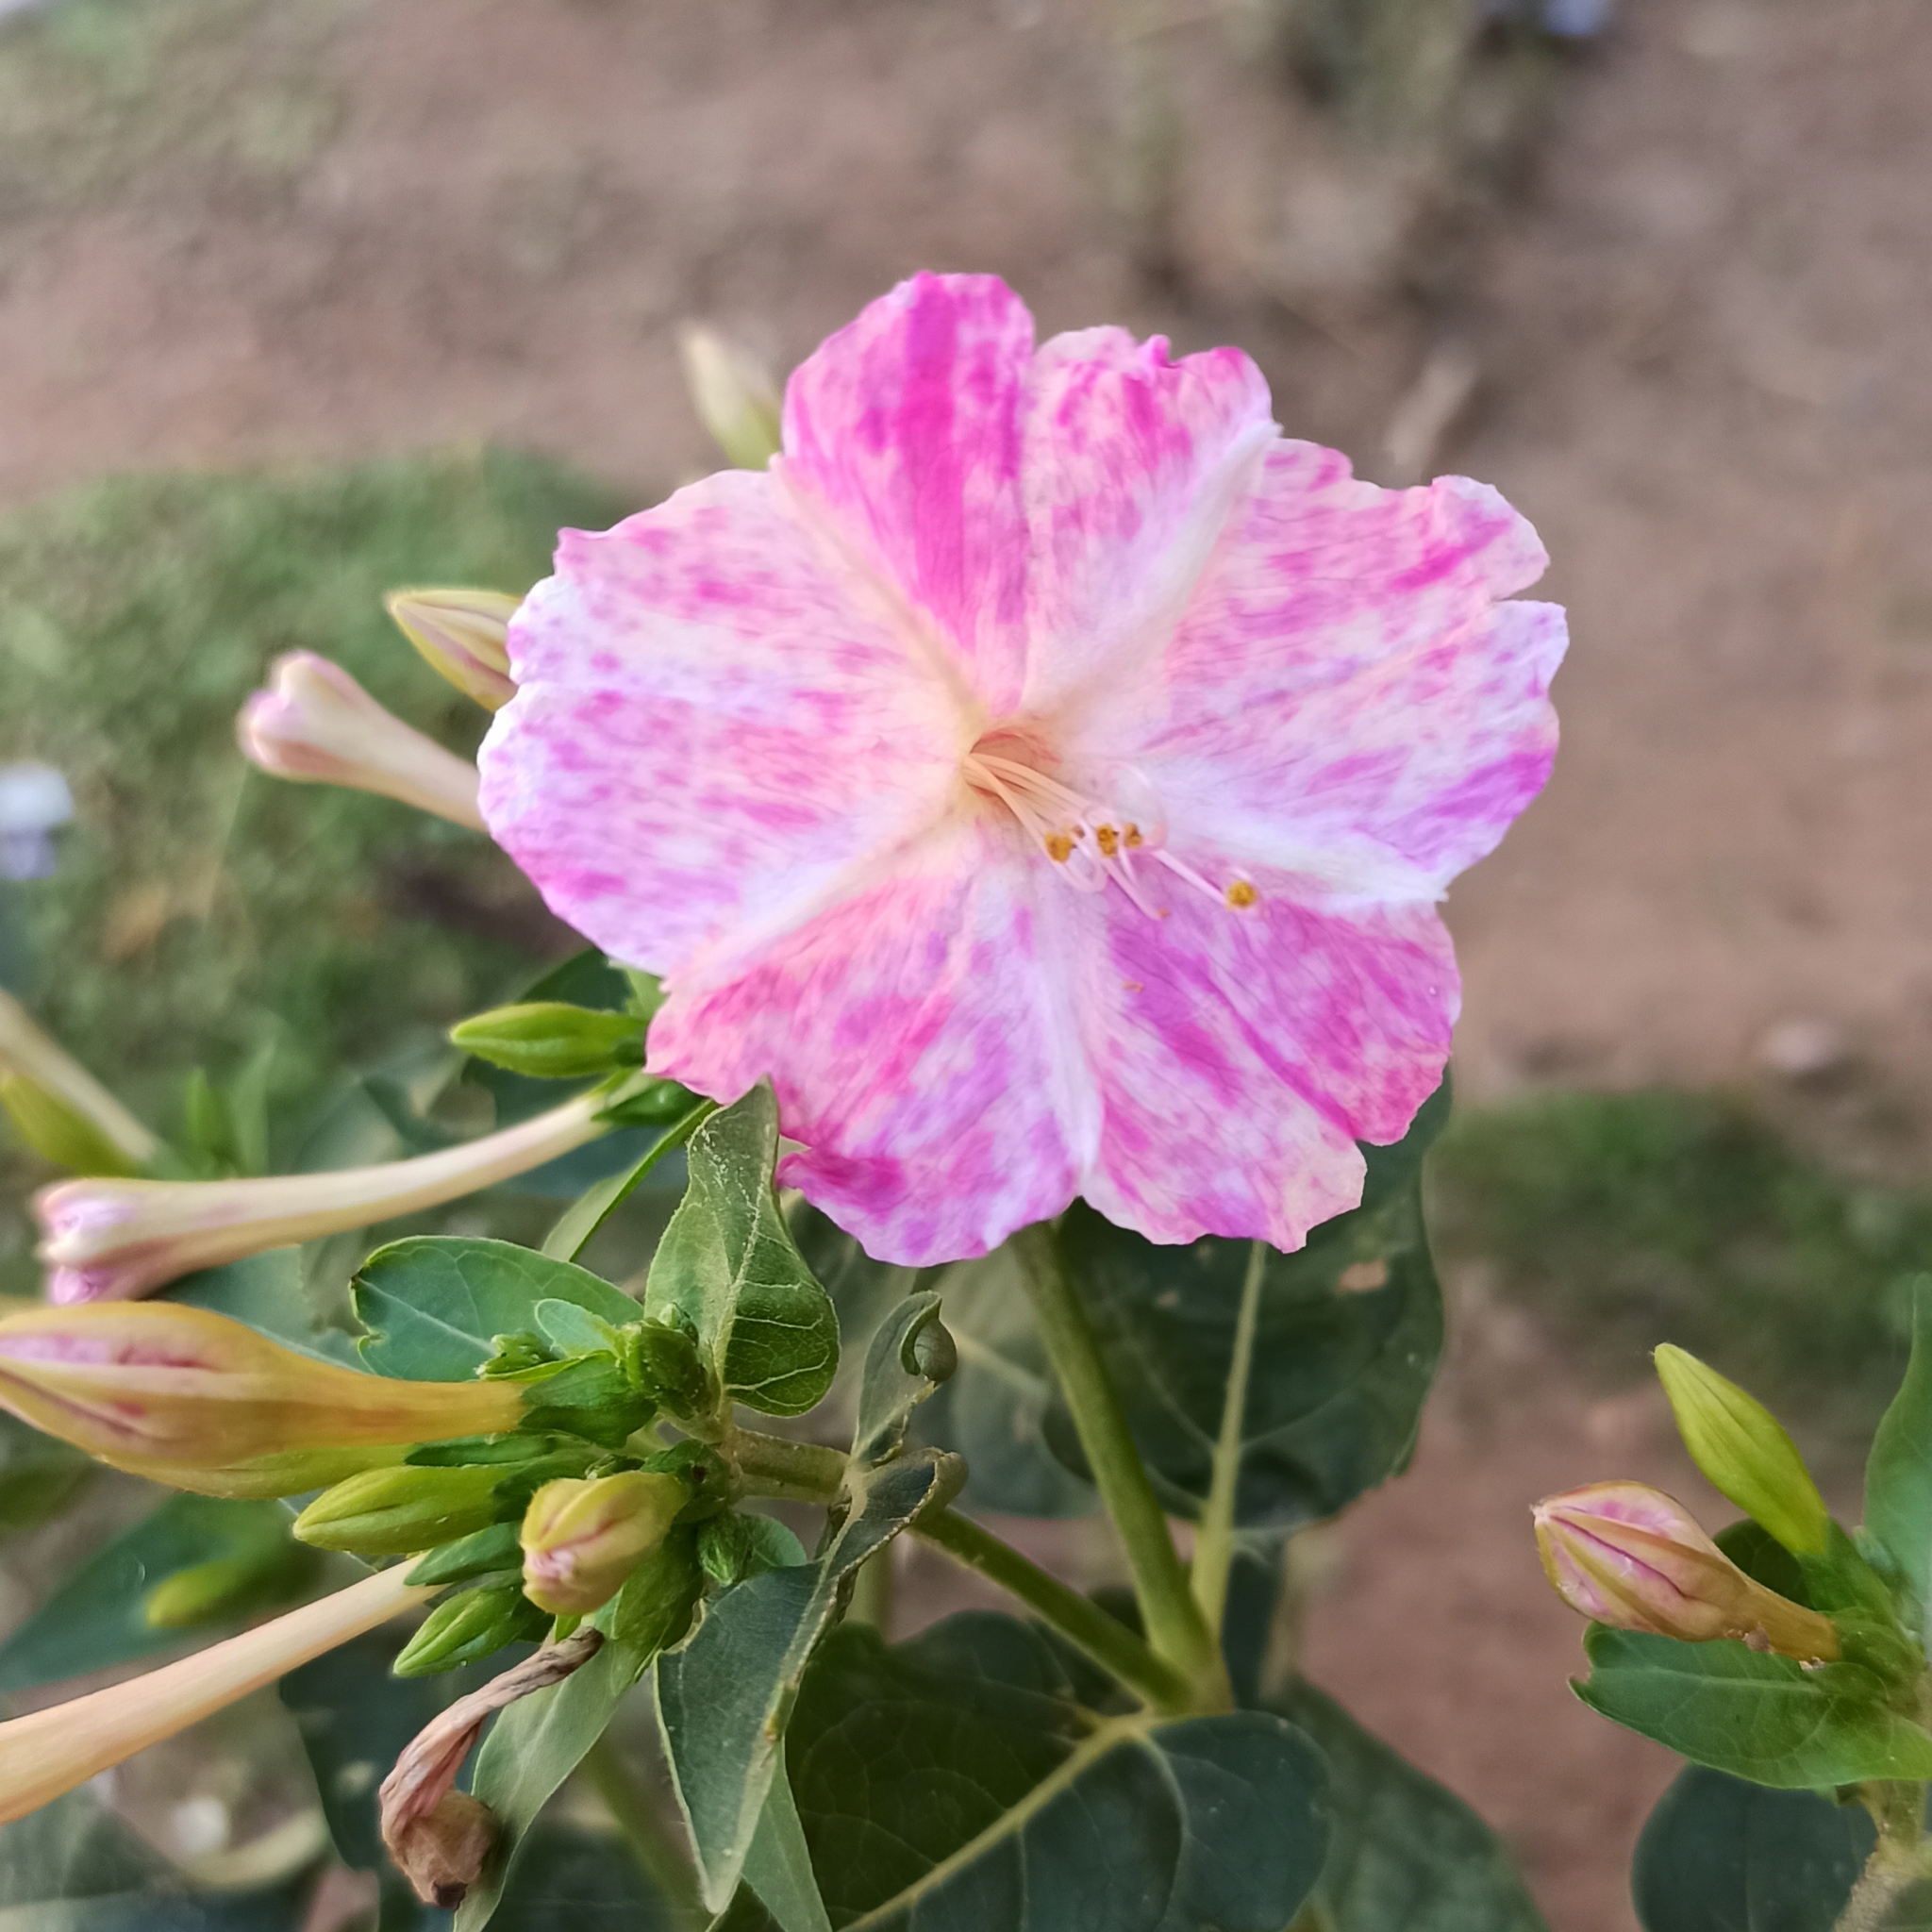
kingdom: Plantae
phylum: Tracheophyta
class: Magnoliopsida
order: Caryophyllales
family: Nyctaginaceae
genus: Mirabilis
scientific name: Mirabilis jalapa
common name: Marvel-of-peru
